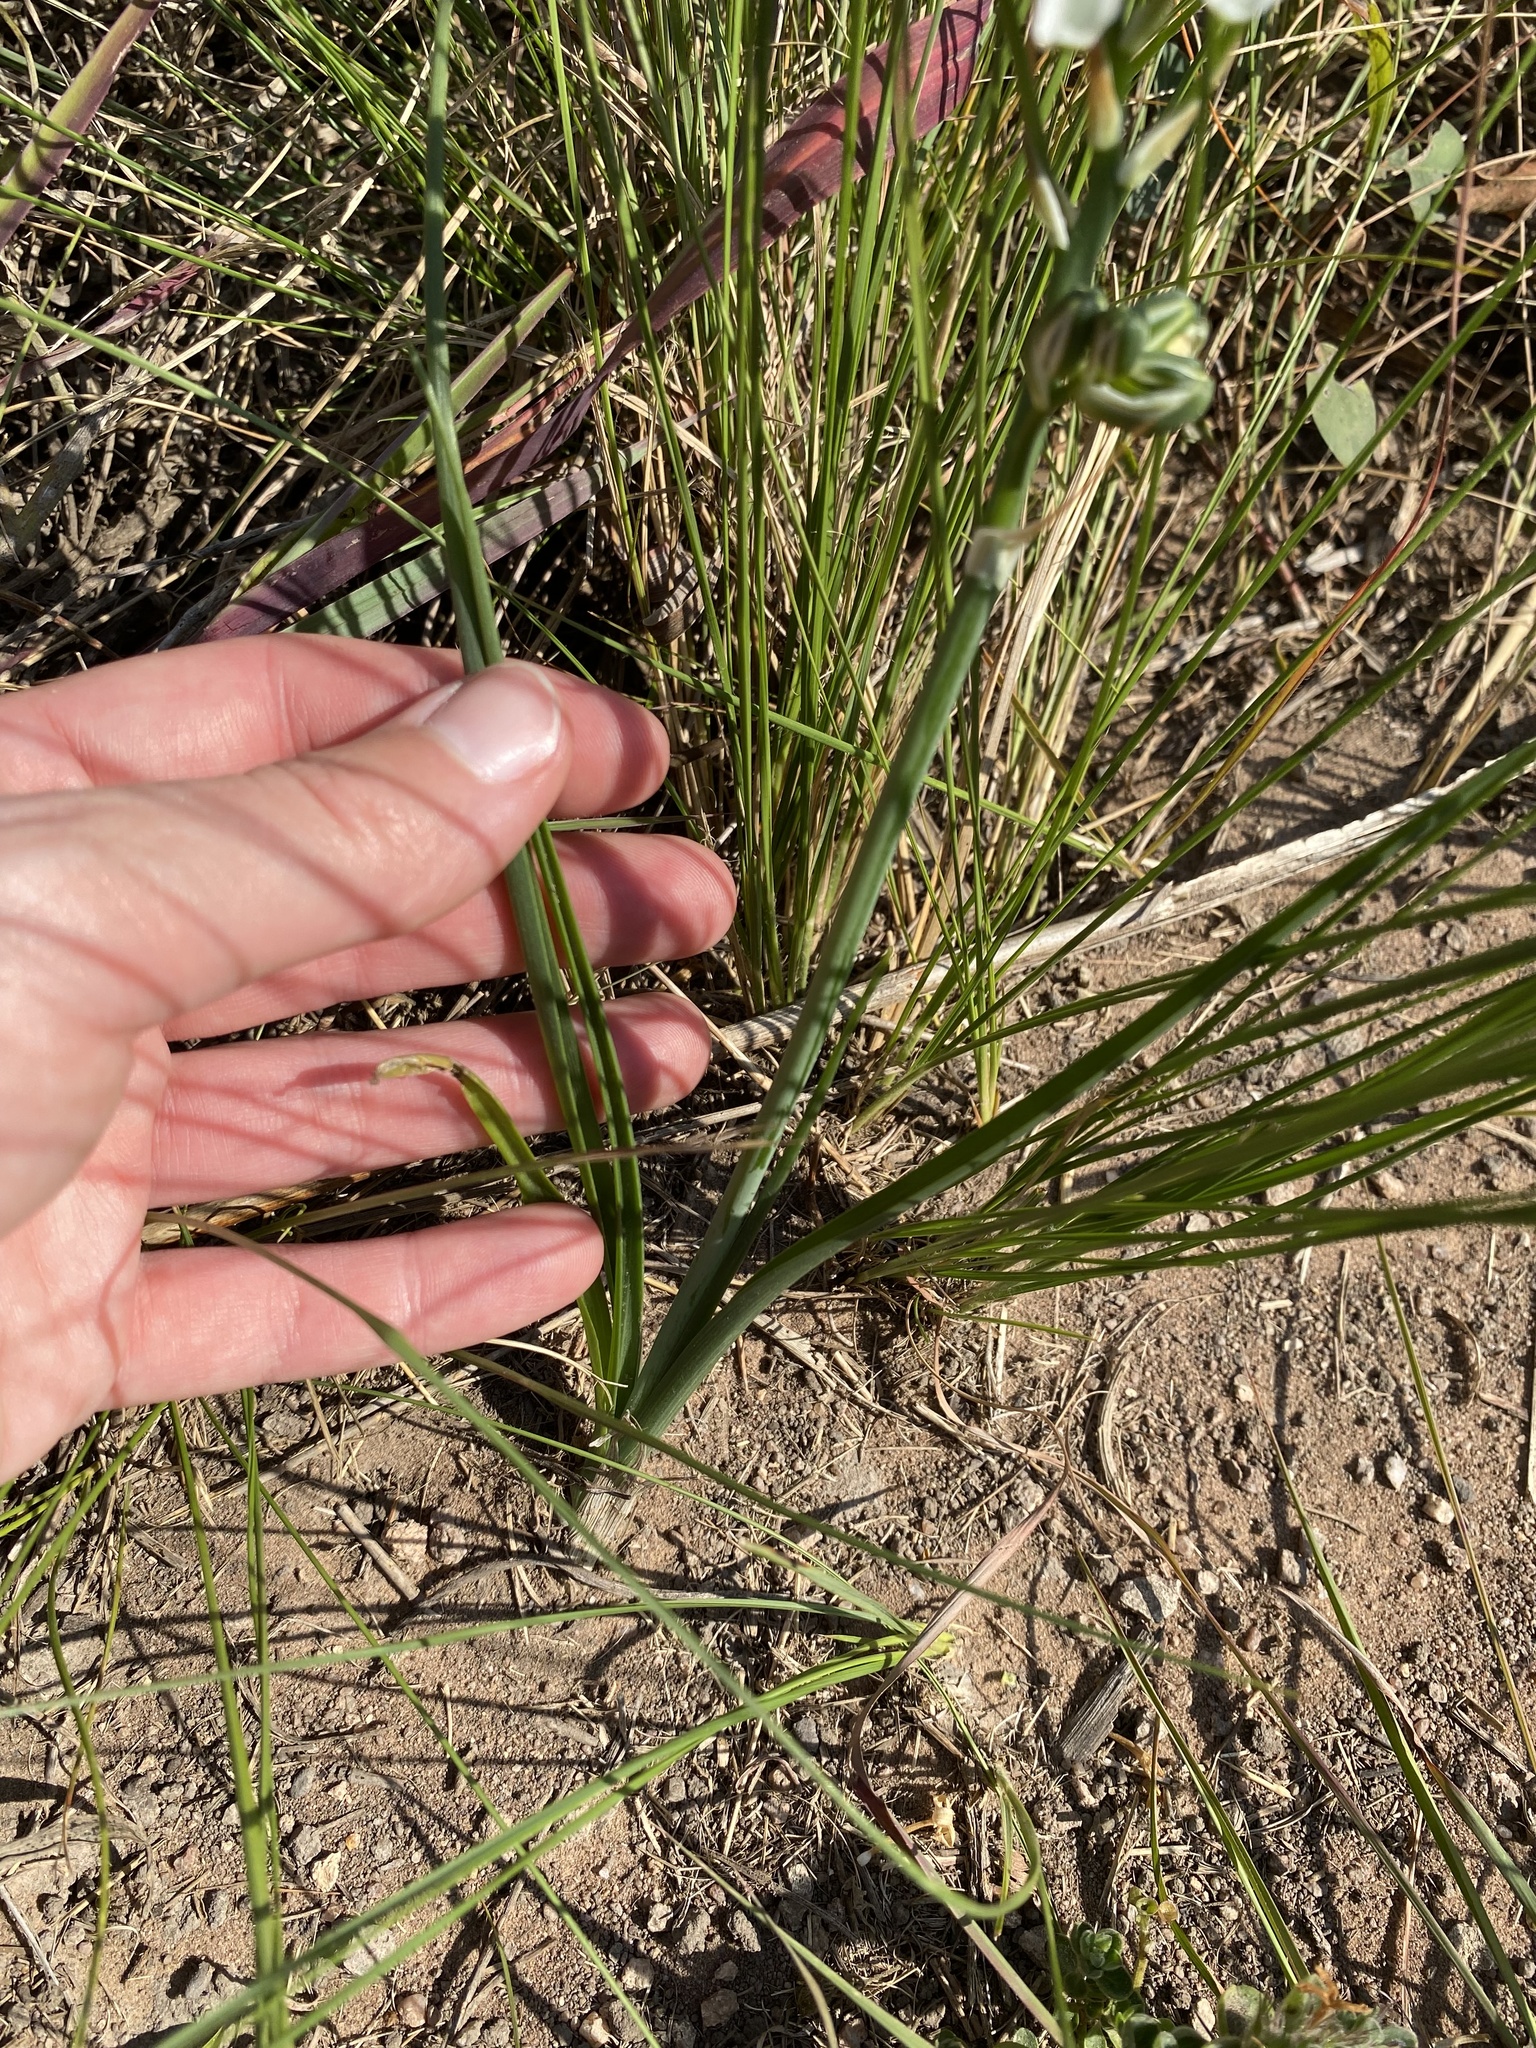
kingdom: Plantae
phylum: Tracheophyta
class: Liliopsida
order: Asparagales
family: Asparagaceae
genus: Albuca
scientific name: Albuca setosa
